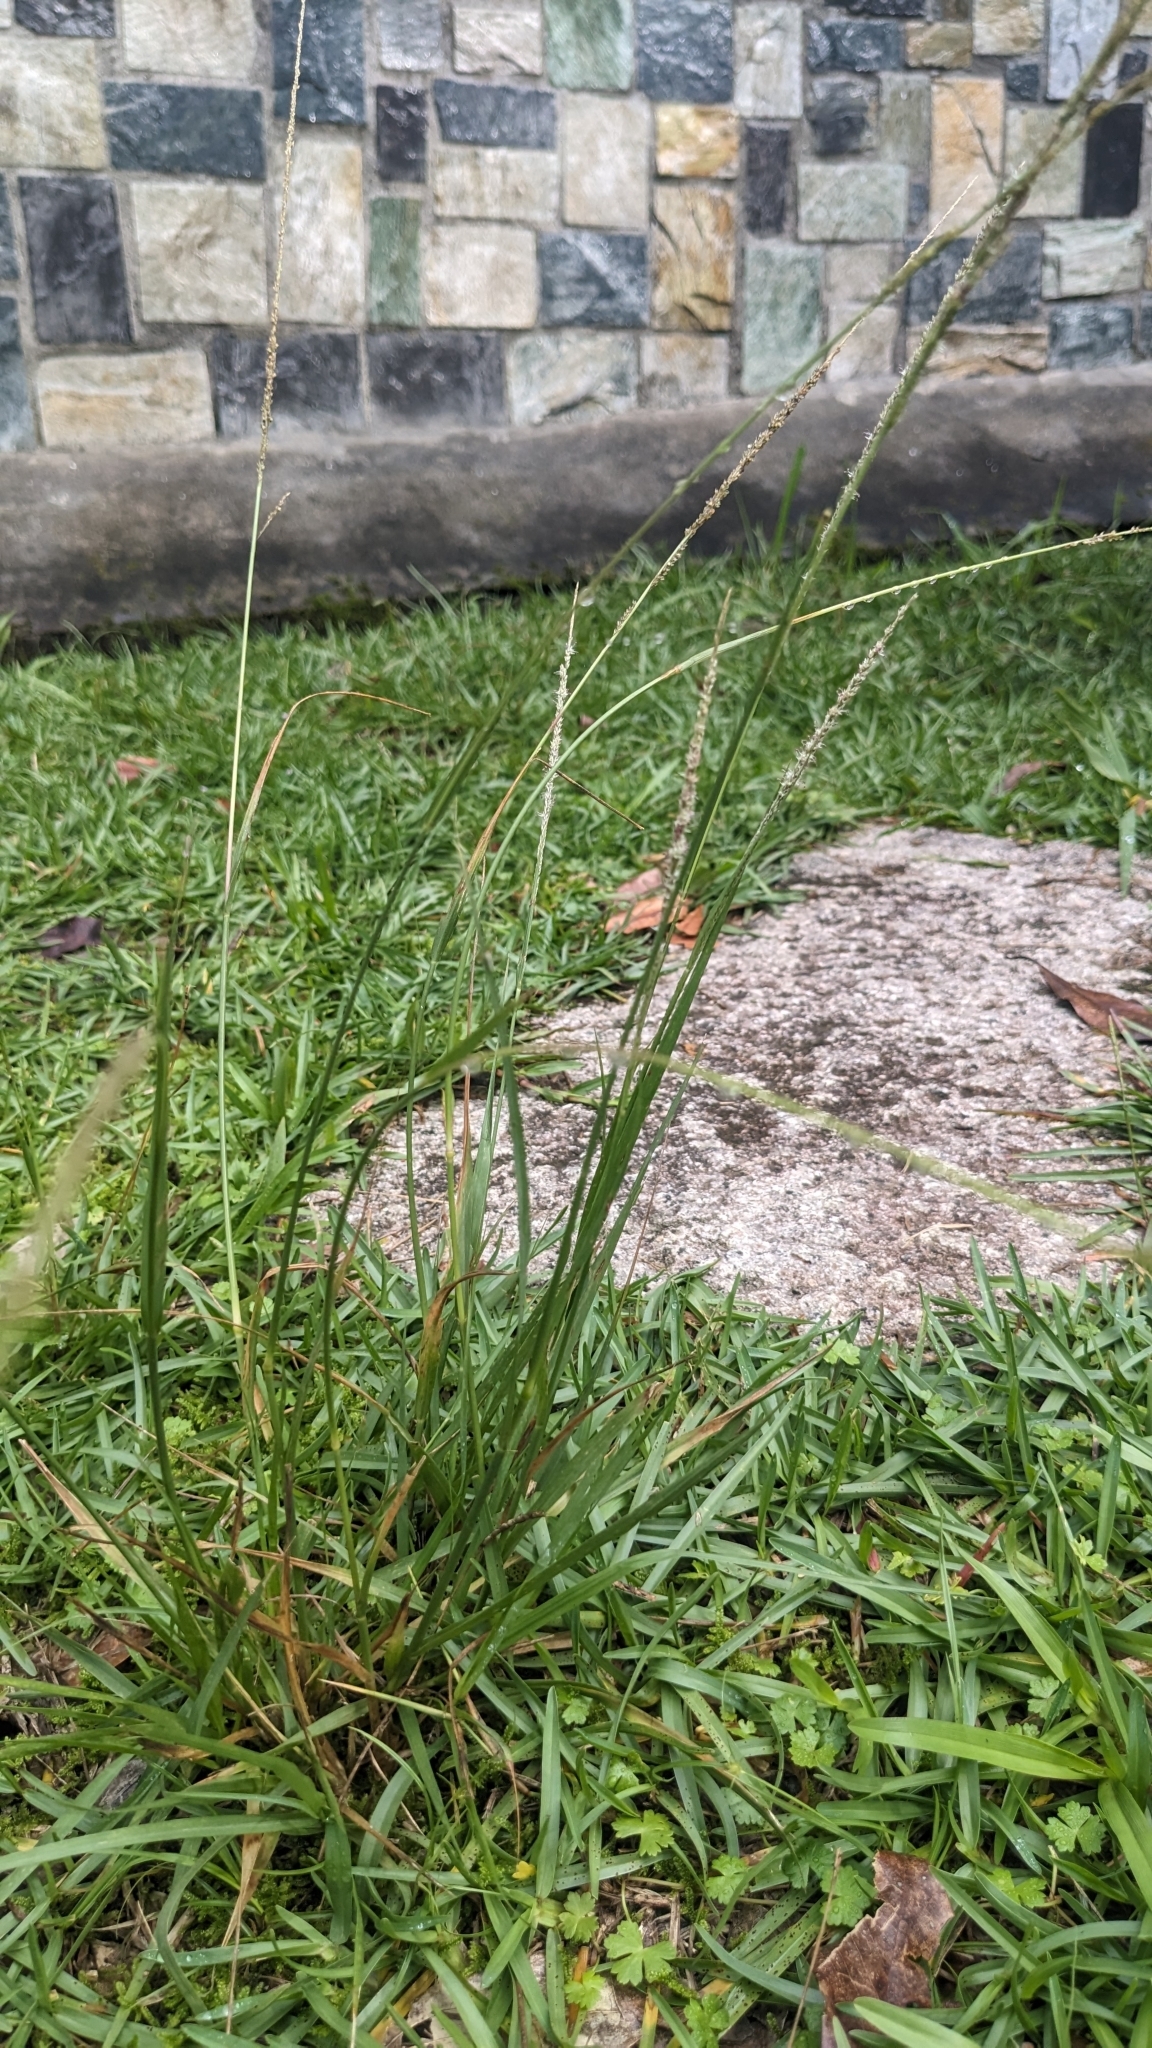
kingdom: Plantae
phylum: Tracheophyta
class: Liliopsida
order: Poales
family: Poaceae
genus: Sporobolus
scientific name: Sporobolus indicus
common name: Smut grass
